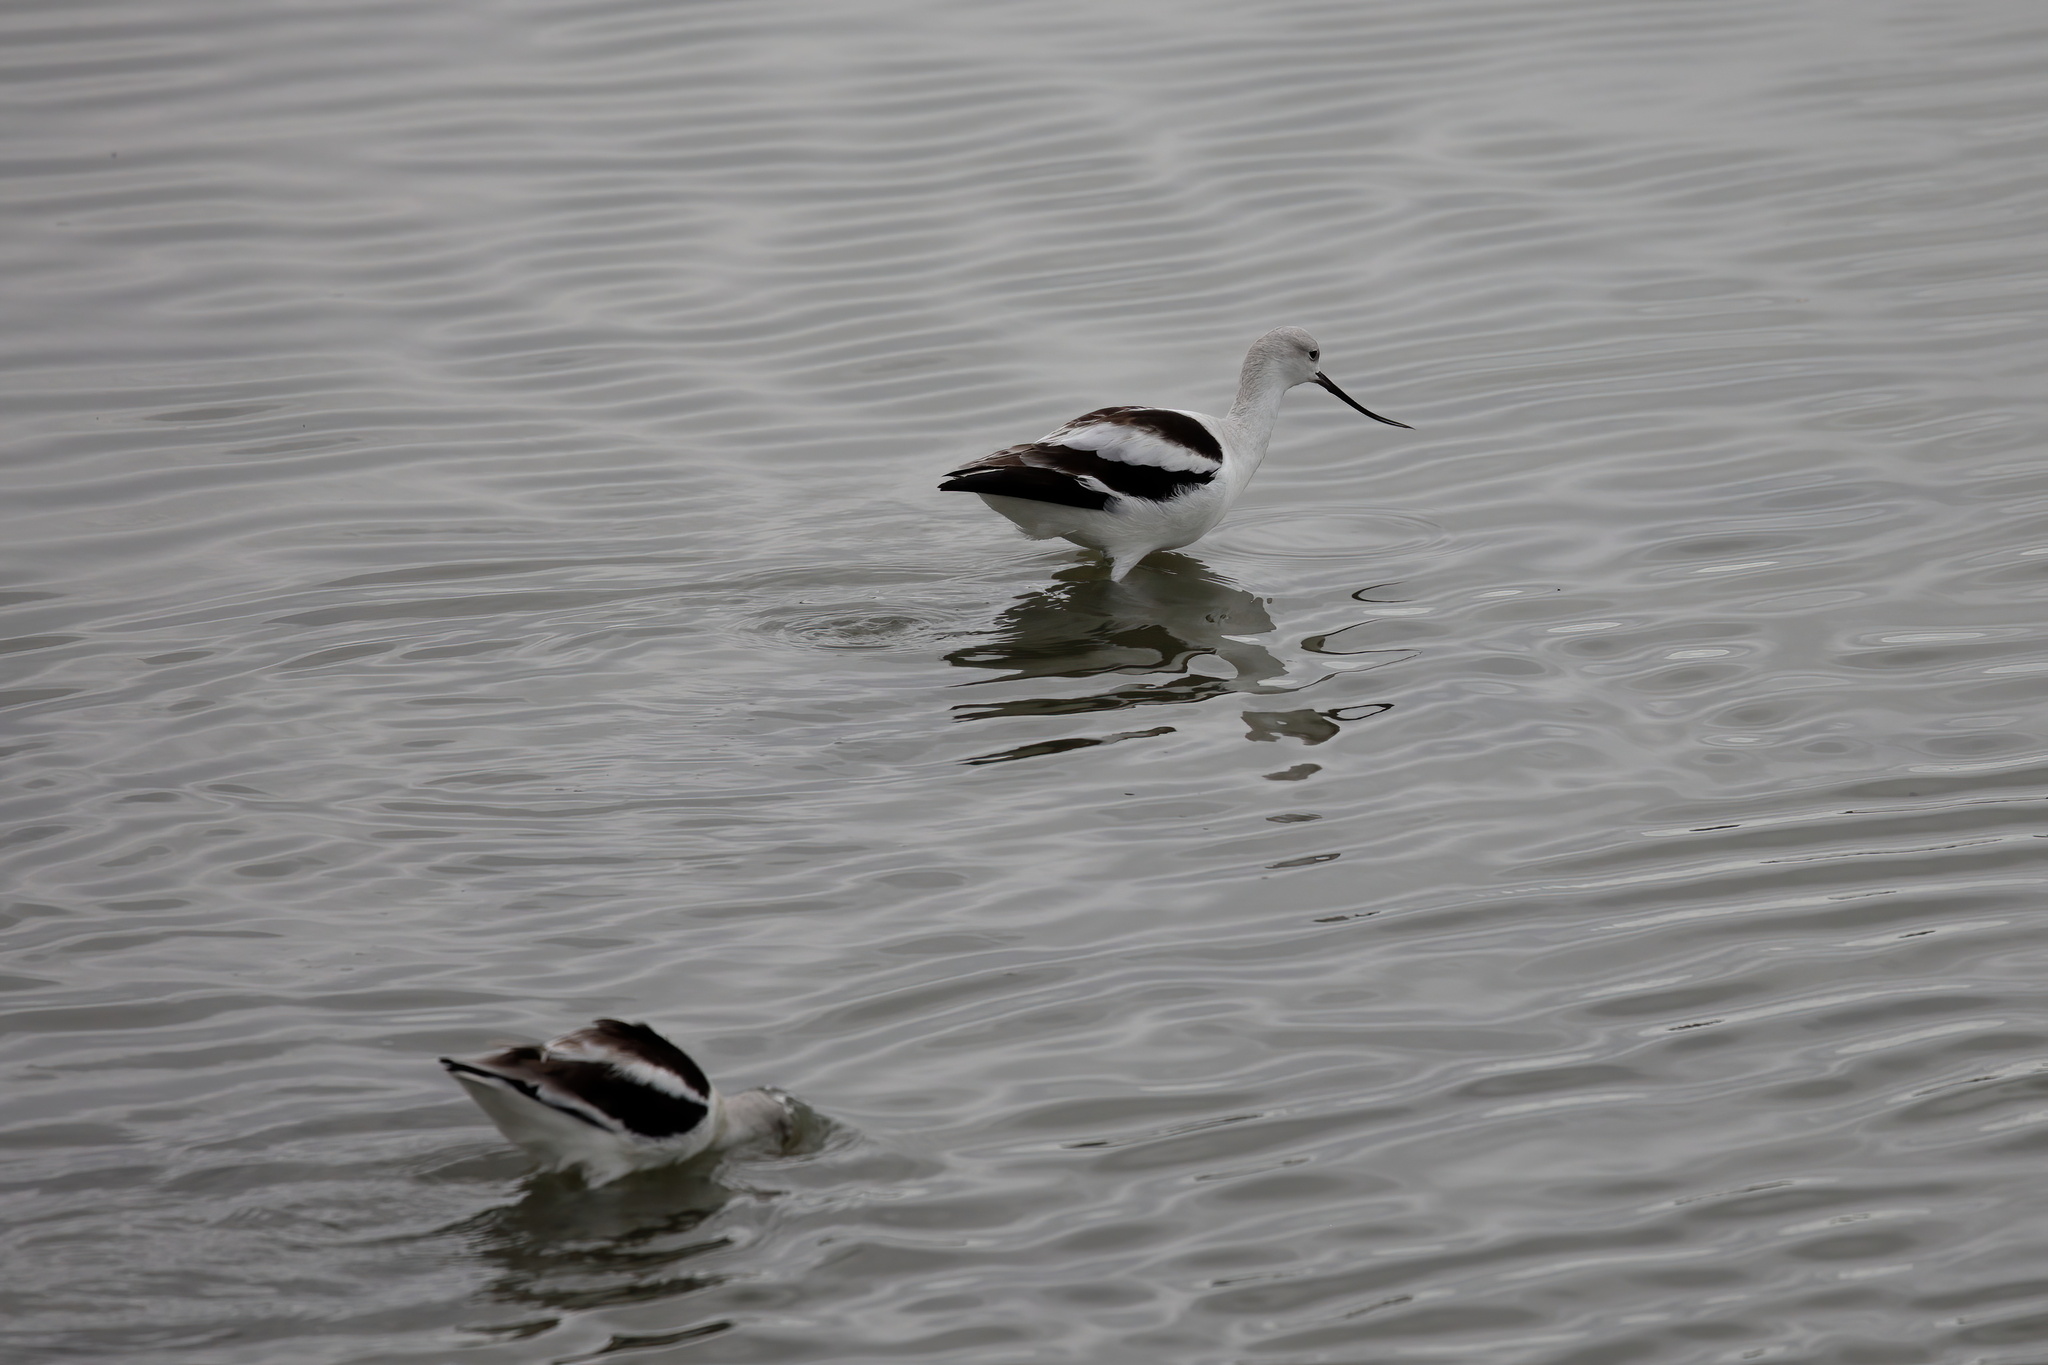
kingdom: Animalia
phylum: Chordata
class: Aves
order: Charadriiformes
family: Recurvirostridae
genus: Recurvirostra
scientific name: Recurvirostra americana
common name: American avocet
